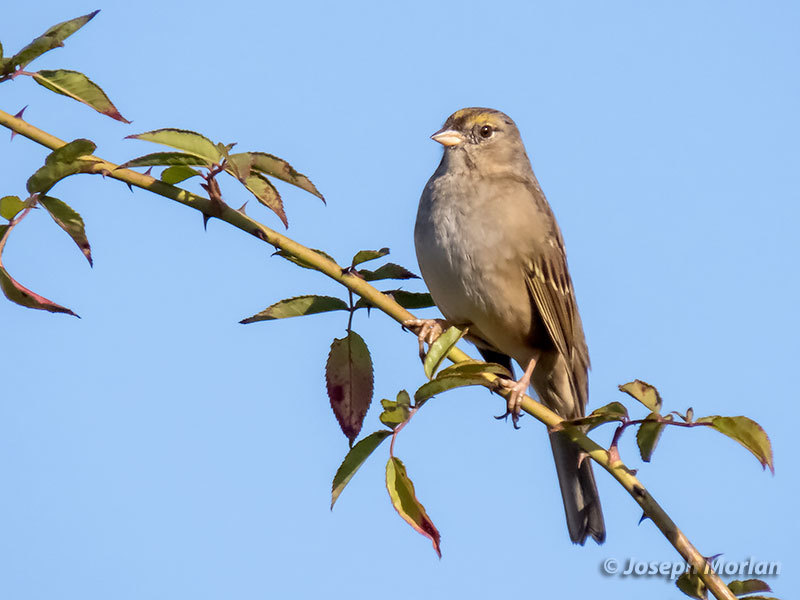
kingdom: Animalia
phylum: Chordata
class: Aves
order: Passeriformes
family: Passerellidae
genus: Zonotrichia
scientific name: Zonotrichia atricapilla
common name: Golden-crowned sparrow
